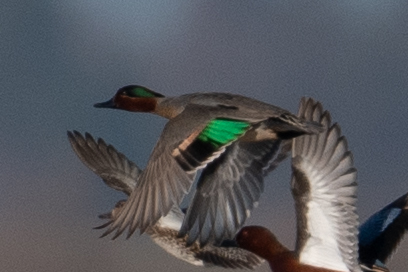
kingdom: Animalia
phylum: Chordata
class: Aves
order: Anseriformes
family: Anatidae
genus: Anas
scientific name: Anas crecca
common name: Eurasian teal
